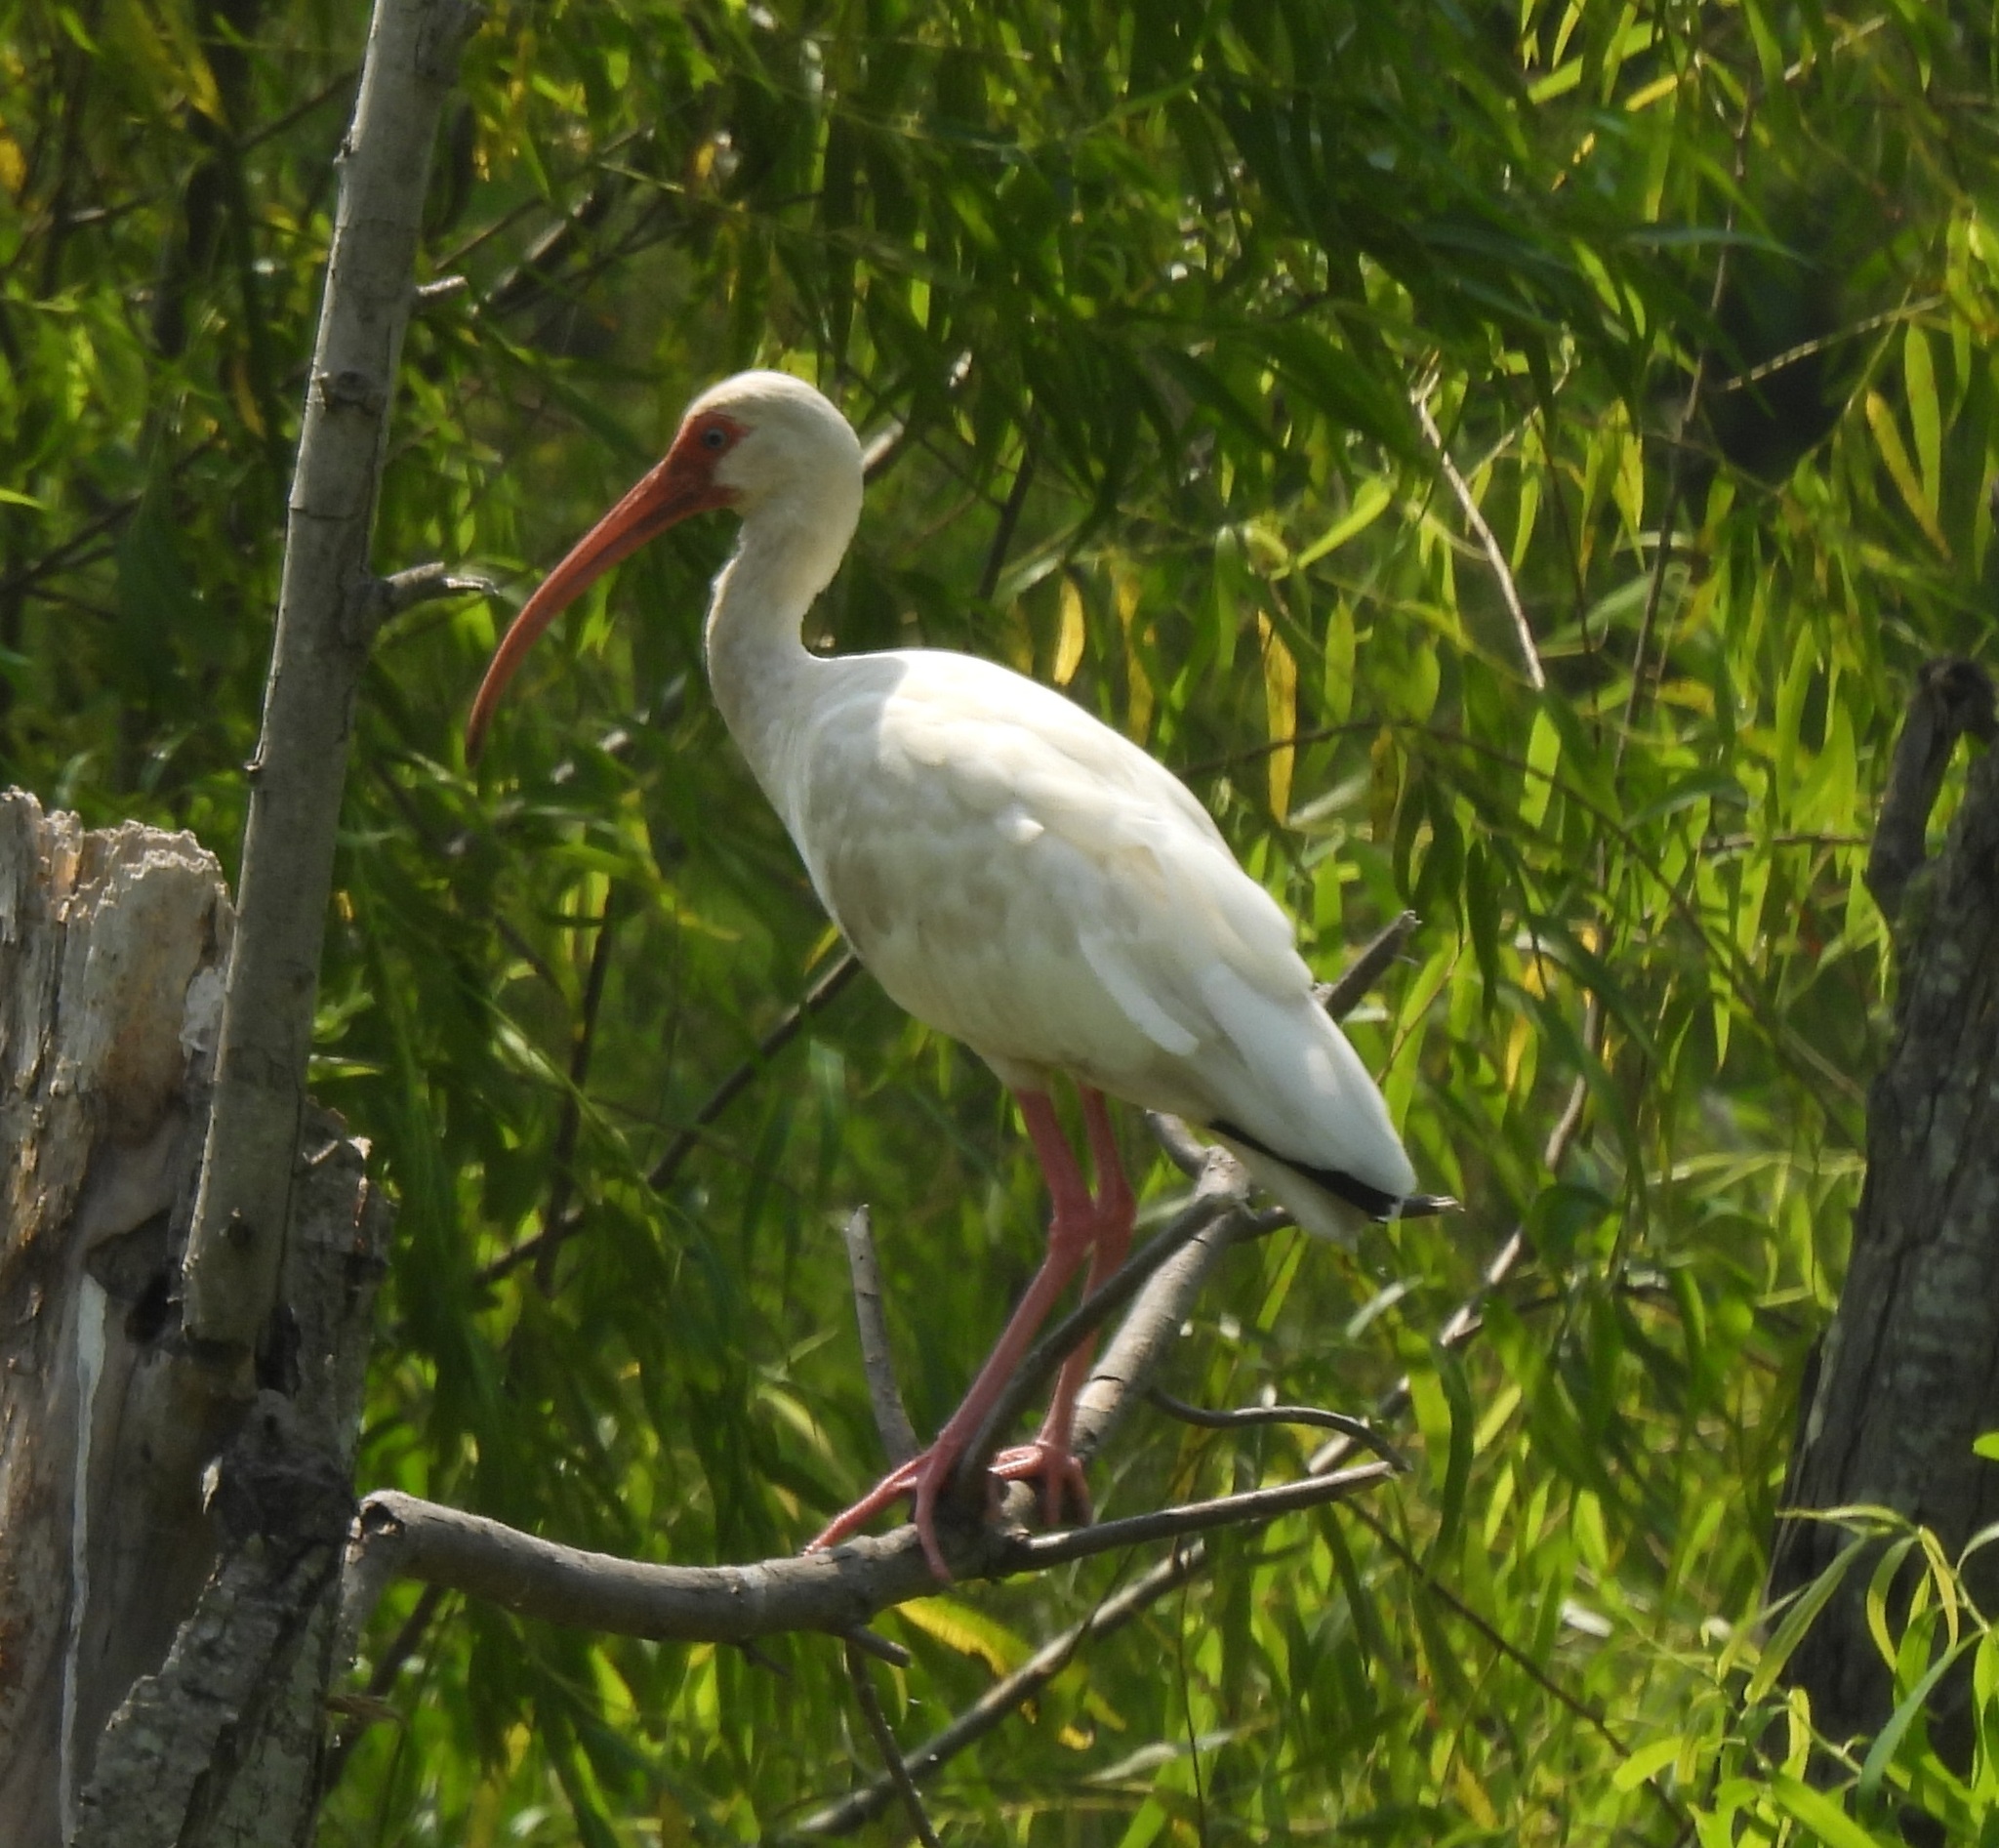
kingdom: Animalia
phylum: Chordata
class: Aves
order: Pelecaniformes
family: Threskiornithidae
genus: Eudocimus
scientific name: Eudocimus albus
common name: White ibis
